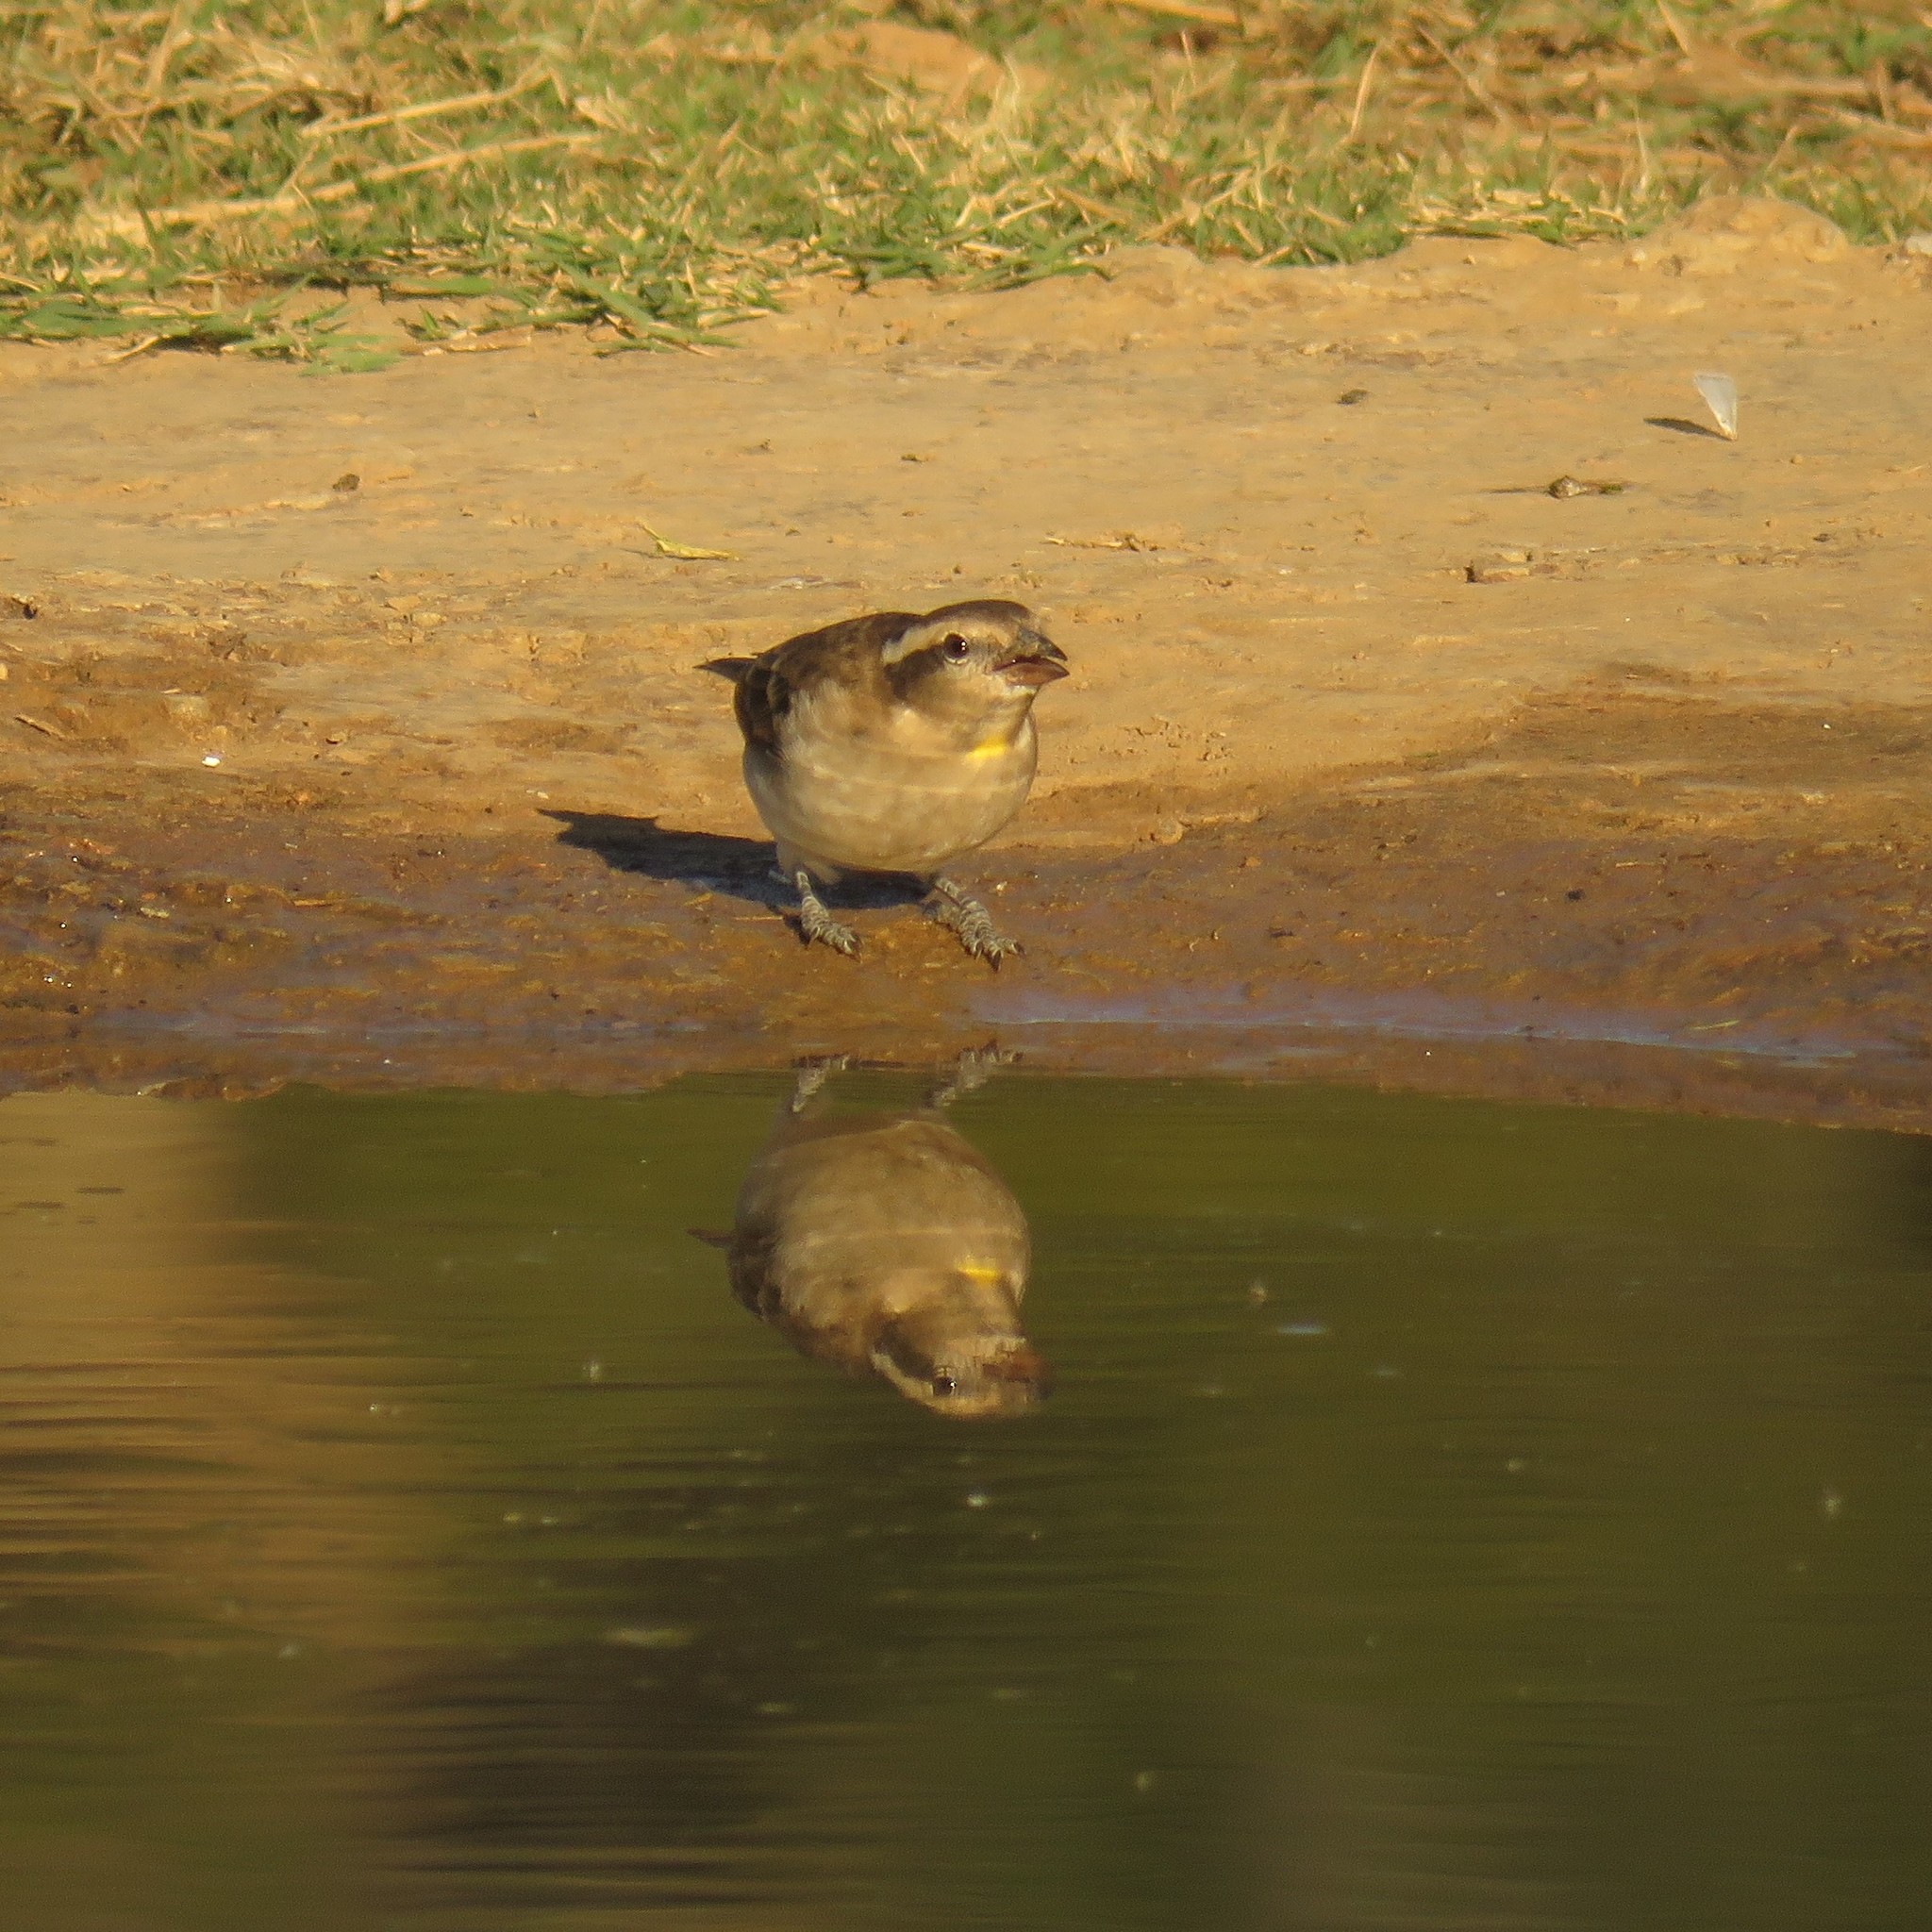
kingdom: Animalia
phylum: Chordata
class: Aves
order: Passeriformes
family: Passeridae
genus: Gymnoris
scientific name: Gymnoris superciliaris
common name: Yellow-throated petronia
